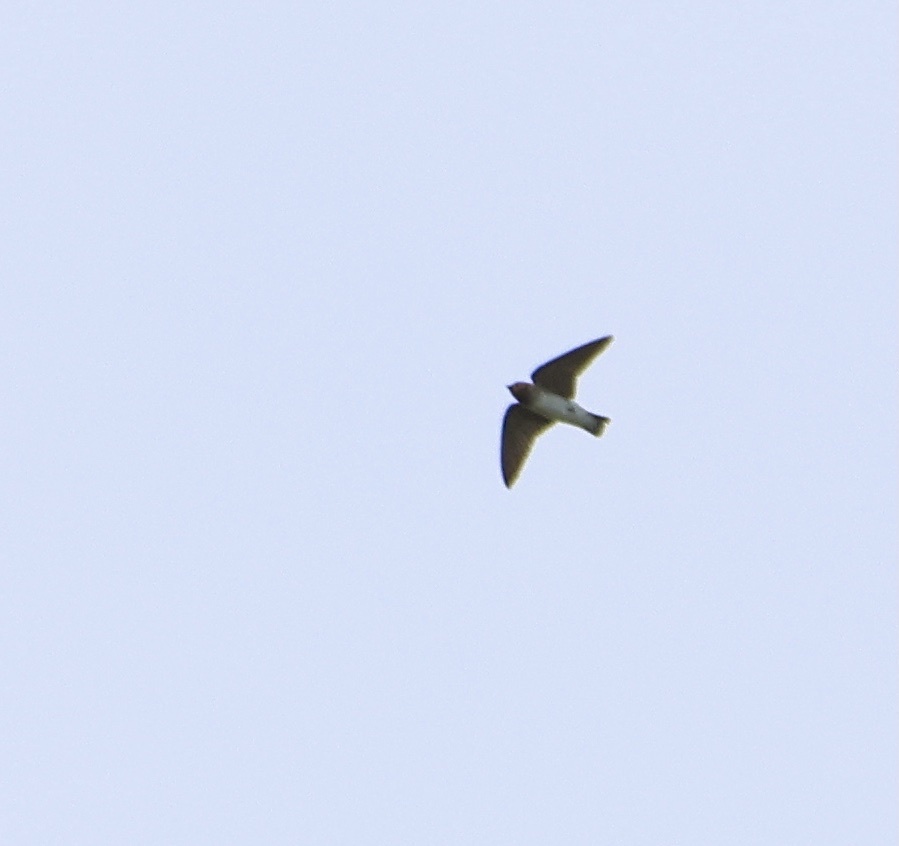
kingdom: Animalia
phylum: Chordata
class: Aves
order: Passeriformes
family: Hirundinidae
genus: Petrochelidon
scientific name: Petrochelidon pyrrhonota
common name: American cliff swallow
